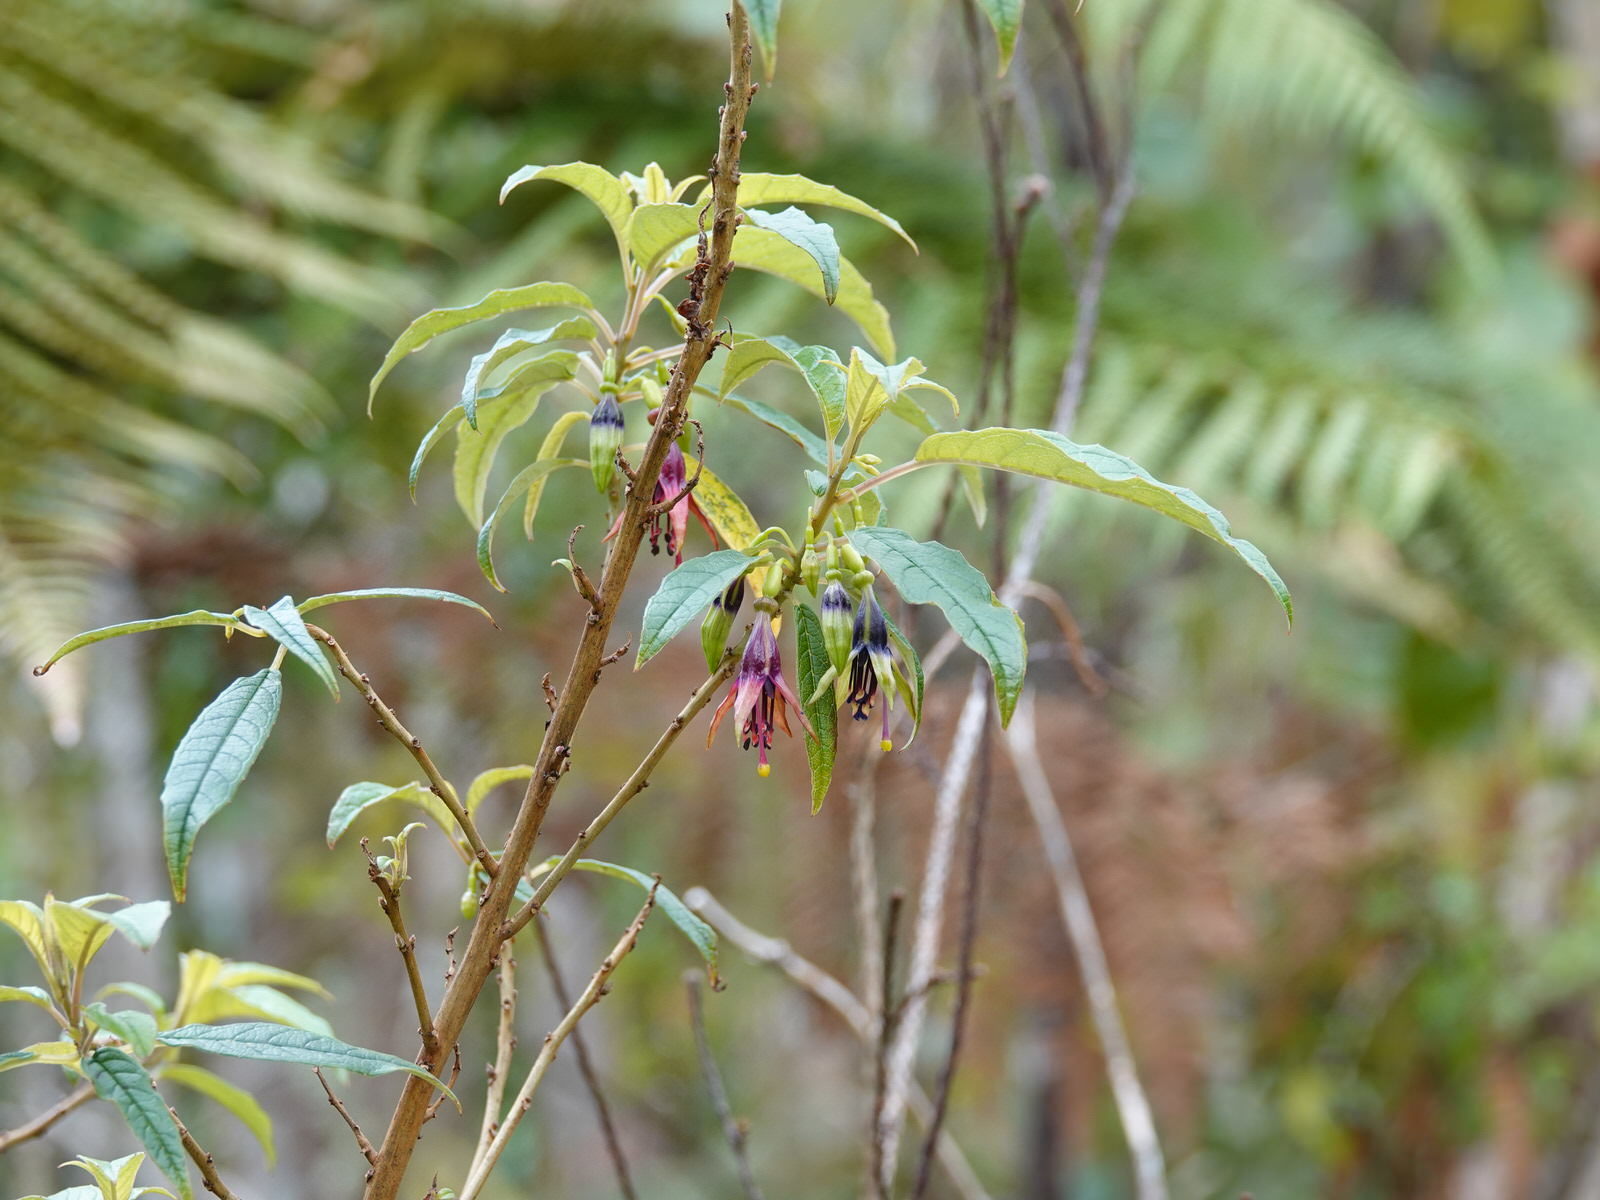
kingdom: Plantae
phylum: Tracheophyta
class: Magnoliopsida
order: Myrtales
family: Onagraceae
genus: Fuchsia
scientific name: Fuchsia excorticata
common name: Tree fuchsia
